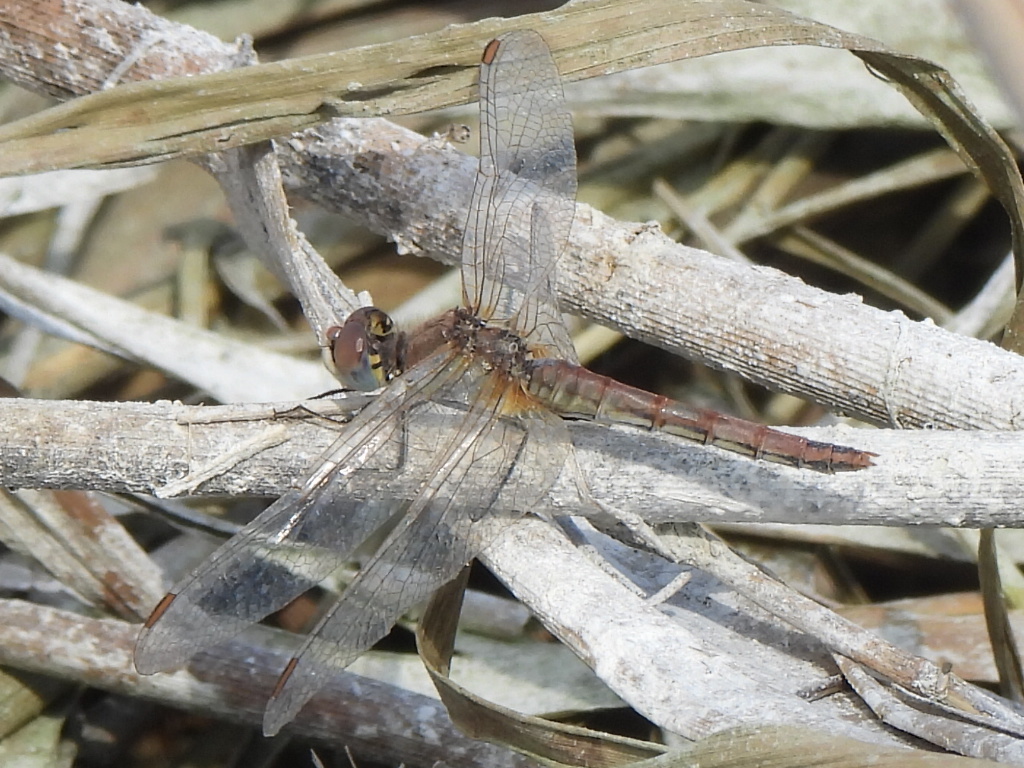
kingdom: Animalia
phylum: Arthropoda
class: Insecta
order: Odonata
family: Libellulidae
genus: Sympetrum
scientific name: Sympetrum fonscolombii
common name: Red-veined darter
